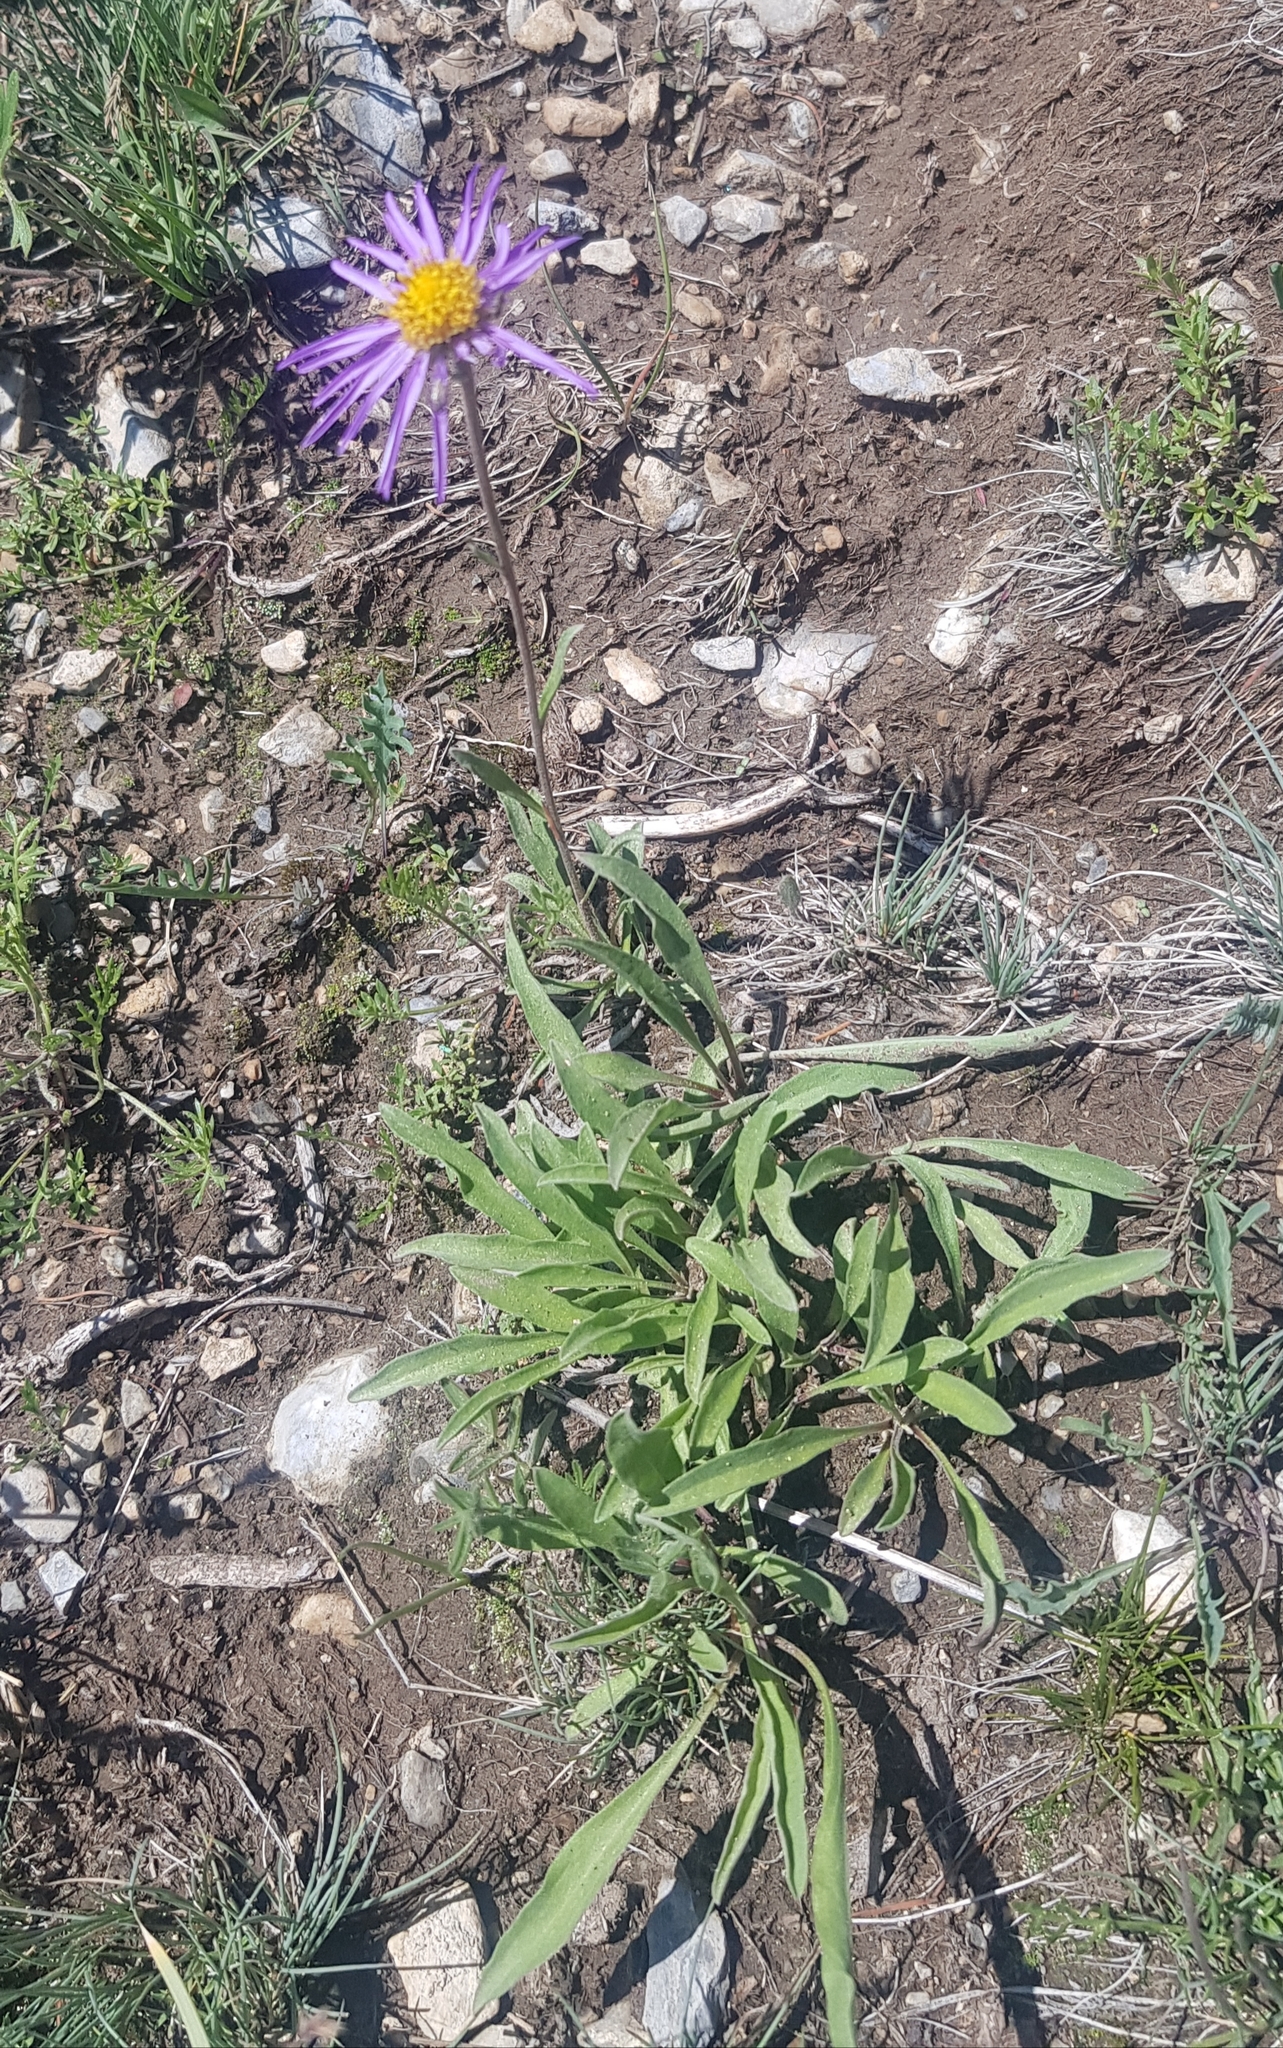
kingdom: Plantae
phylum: Tracheophyta
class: Magnoliopsida
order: Asterales
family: Asteraceae
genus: Aster
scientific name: Aster alpinus
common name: Alpine aster
